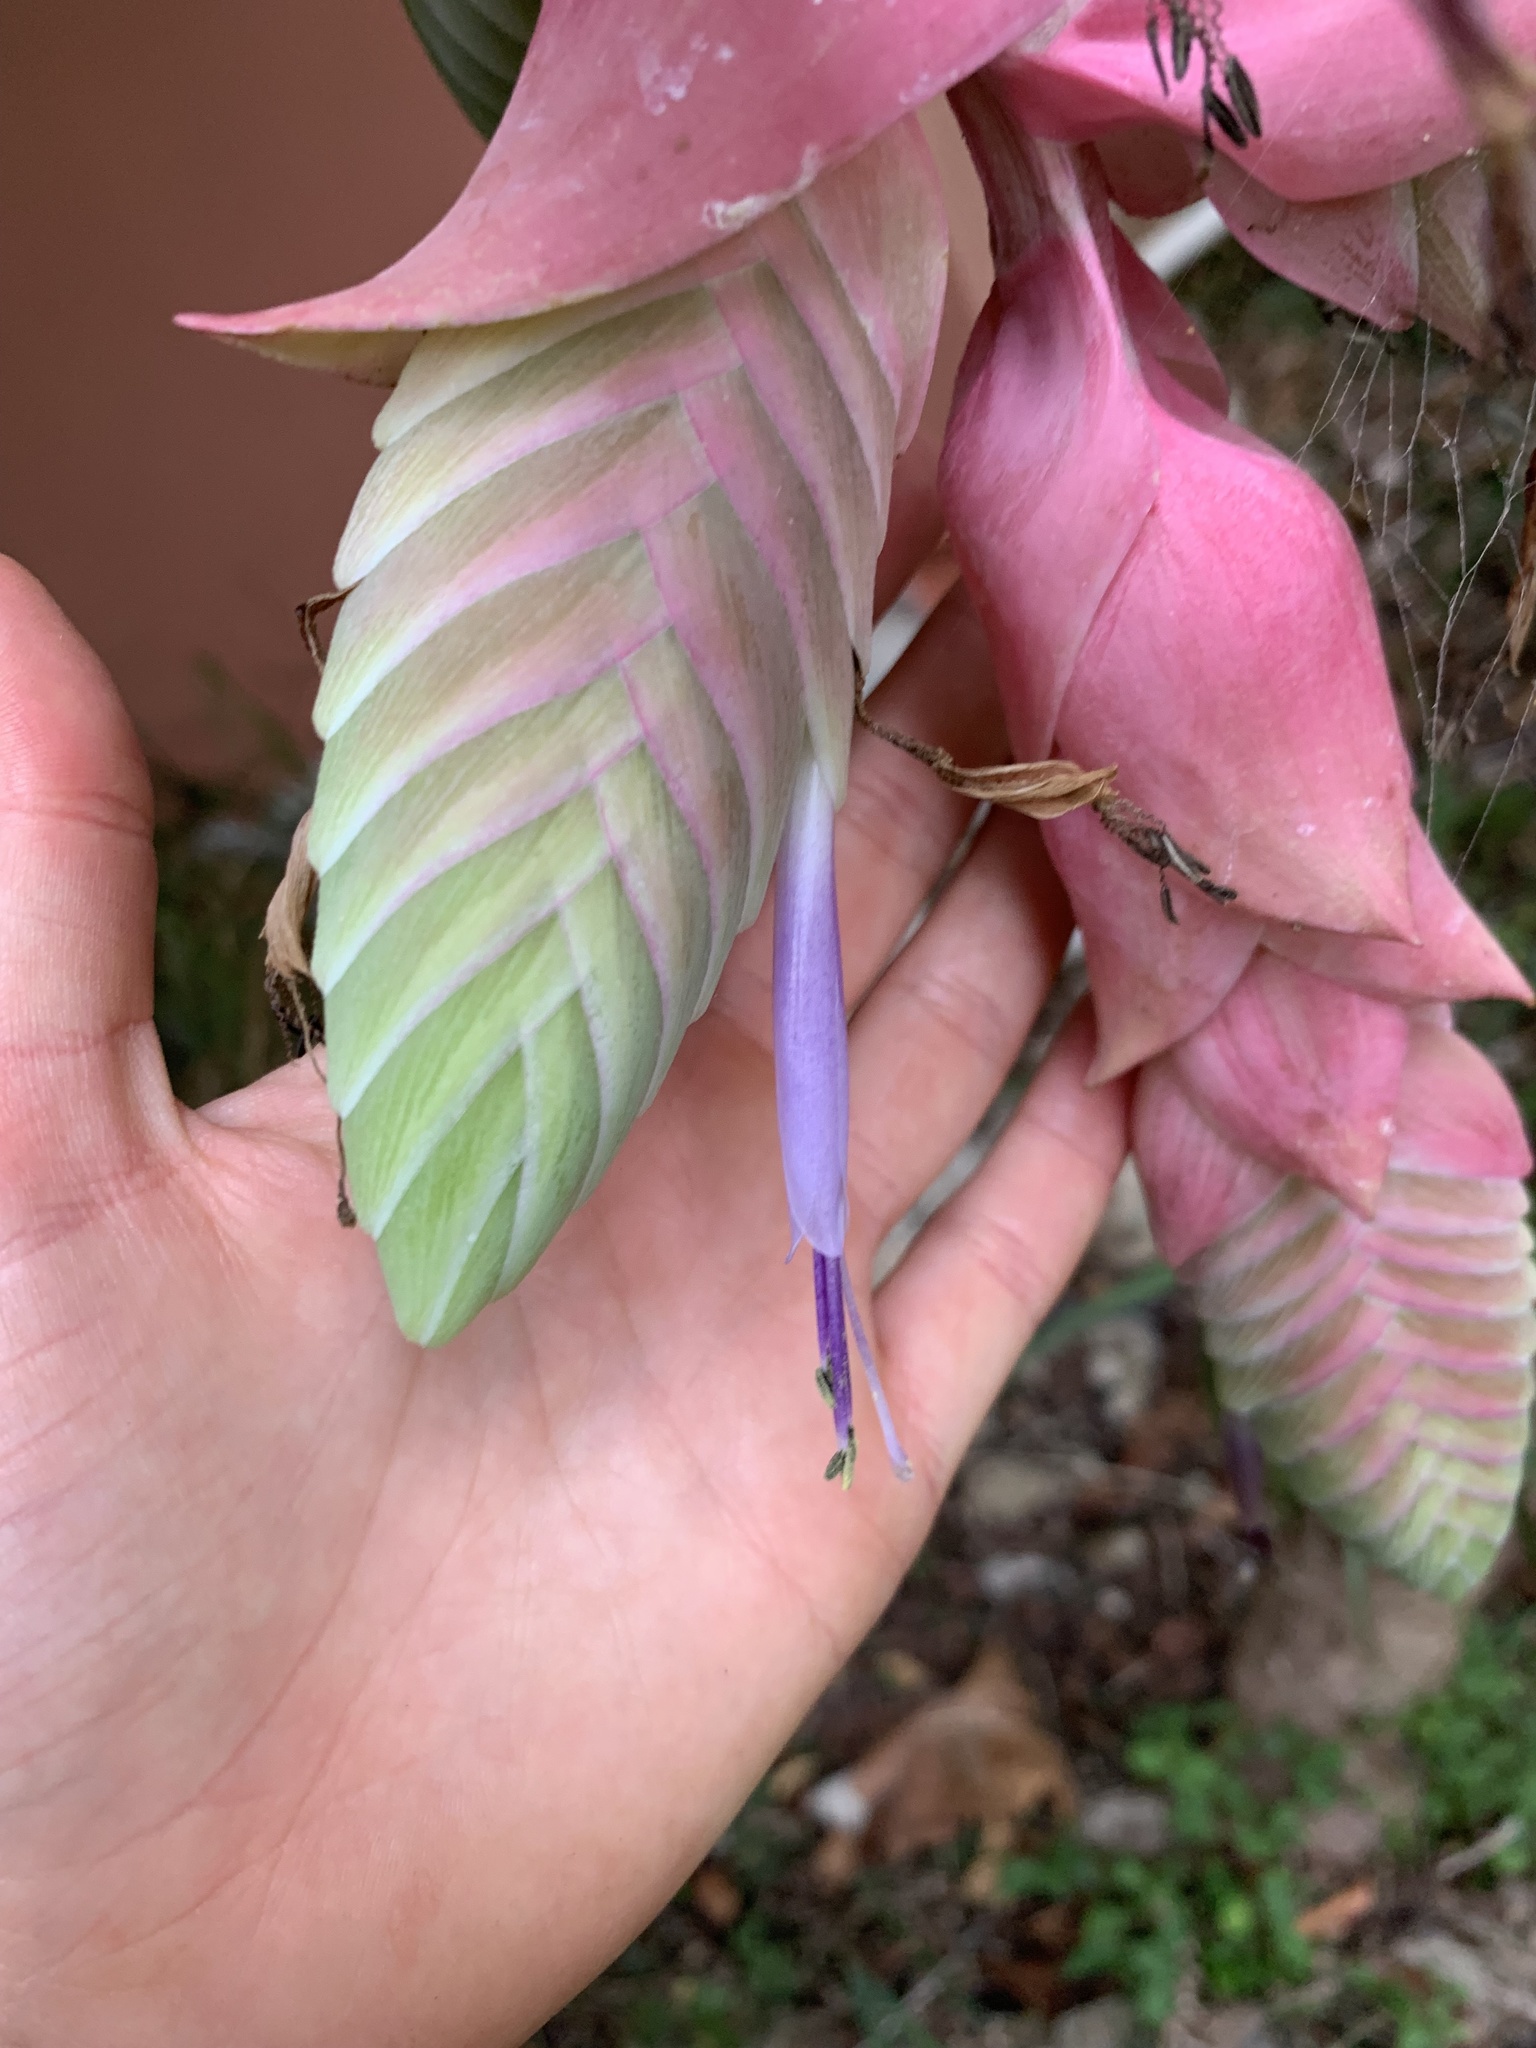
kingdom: Plantae
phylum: Tracheophyta
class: Liliopsida
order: Poales
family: Bromeliaceae
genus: Tillandsia
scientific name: Tillandsia eizii
